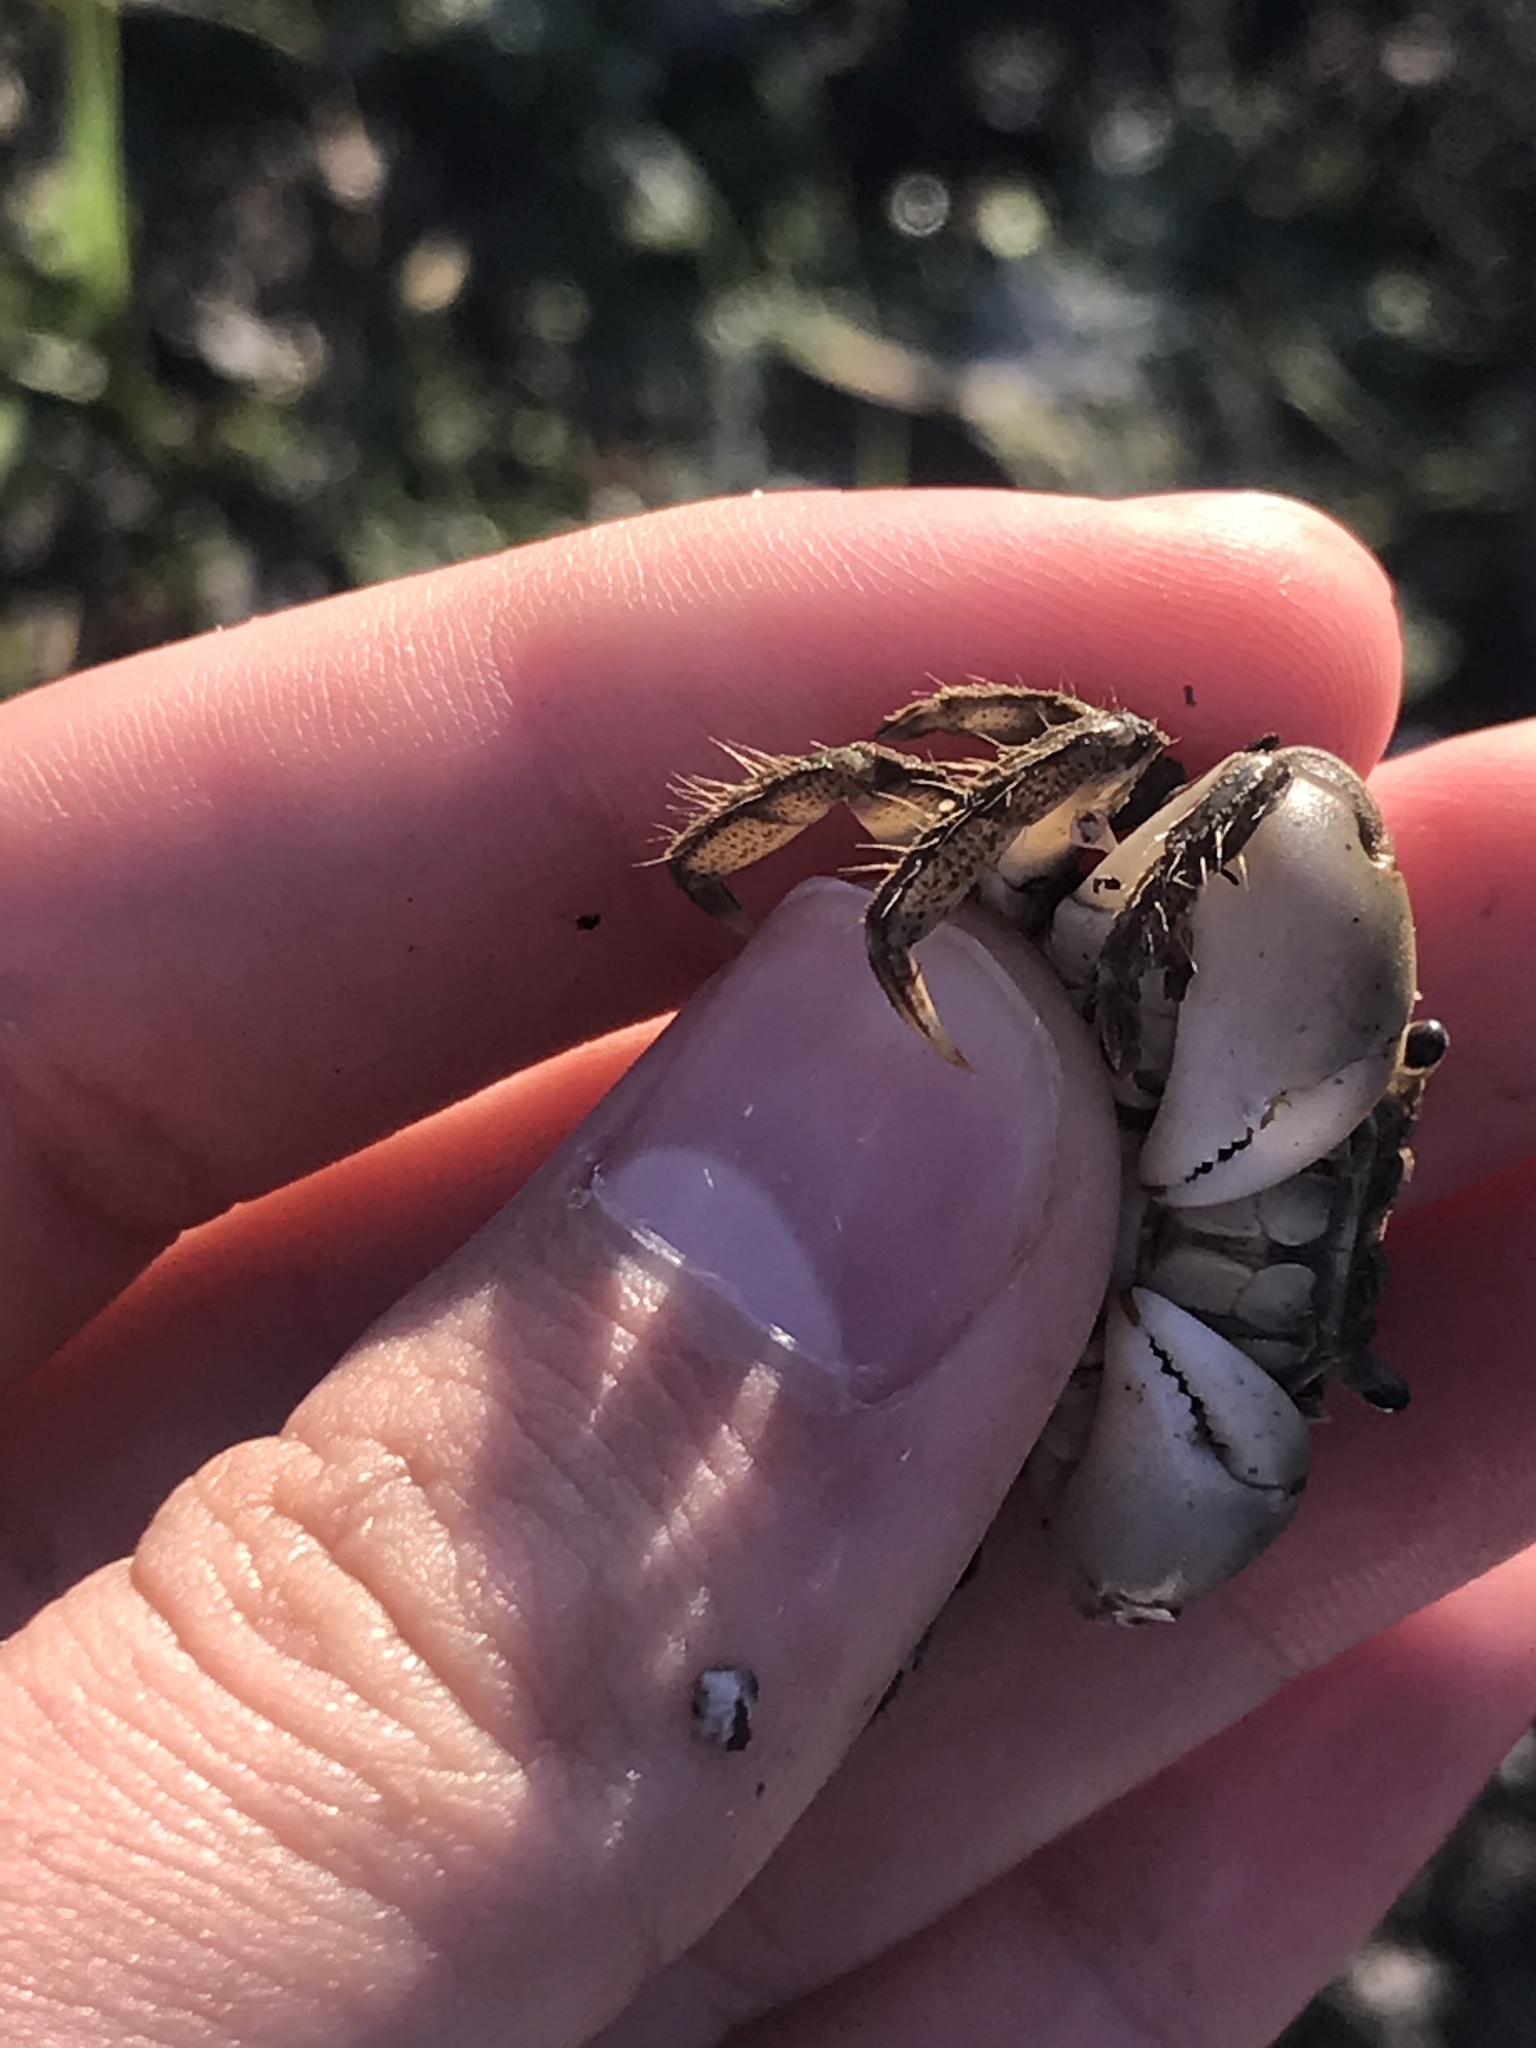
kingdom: Animalia
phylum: Arthropoda
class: Malacostraca
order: Decapoda
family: Varunidae
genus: Hemigrapsus
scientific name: Hemigrapsus oregonensis
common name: Yellow shore crab
